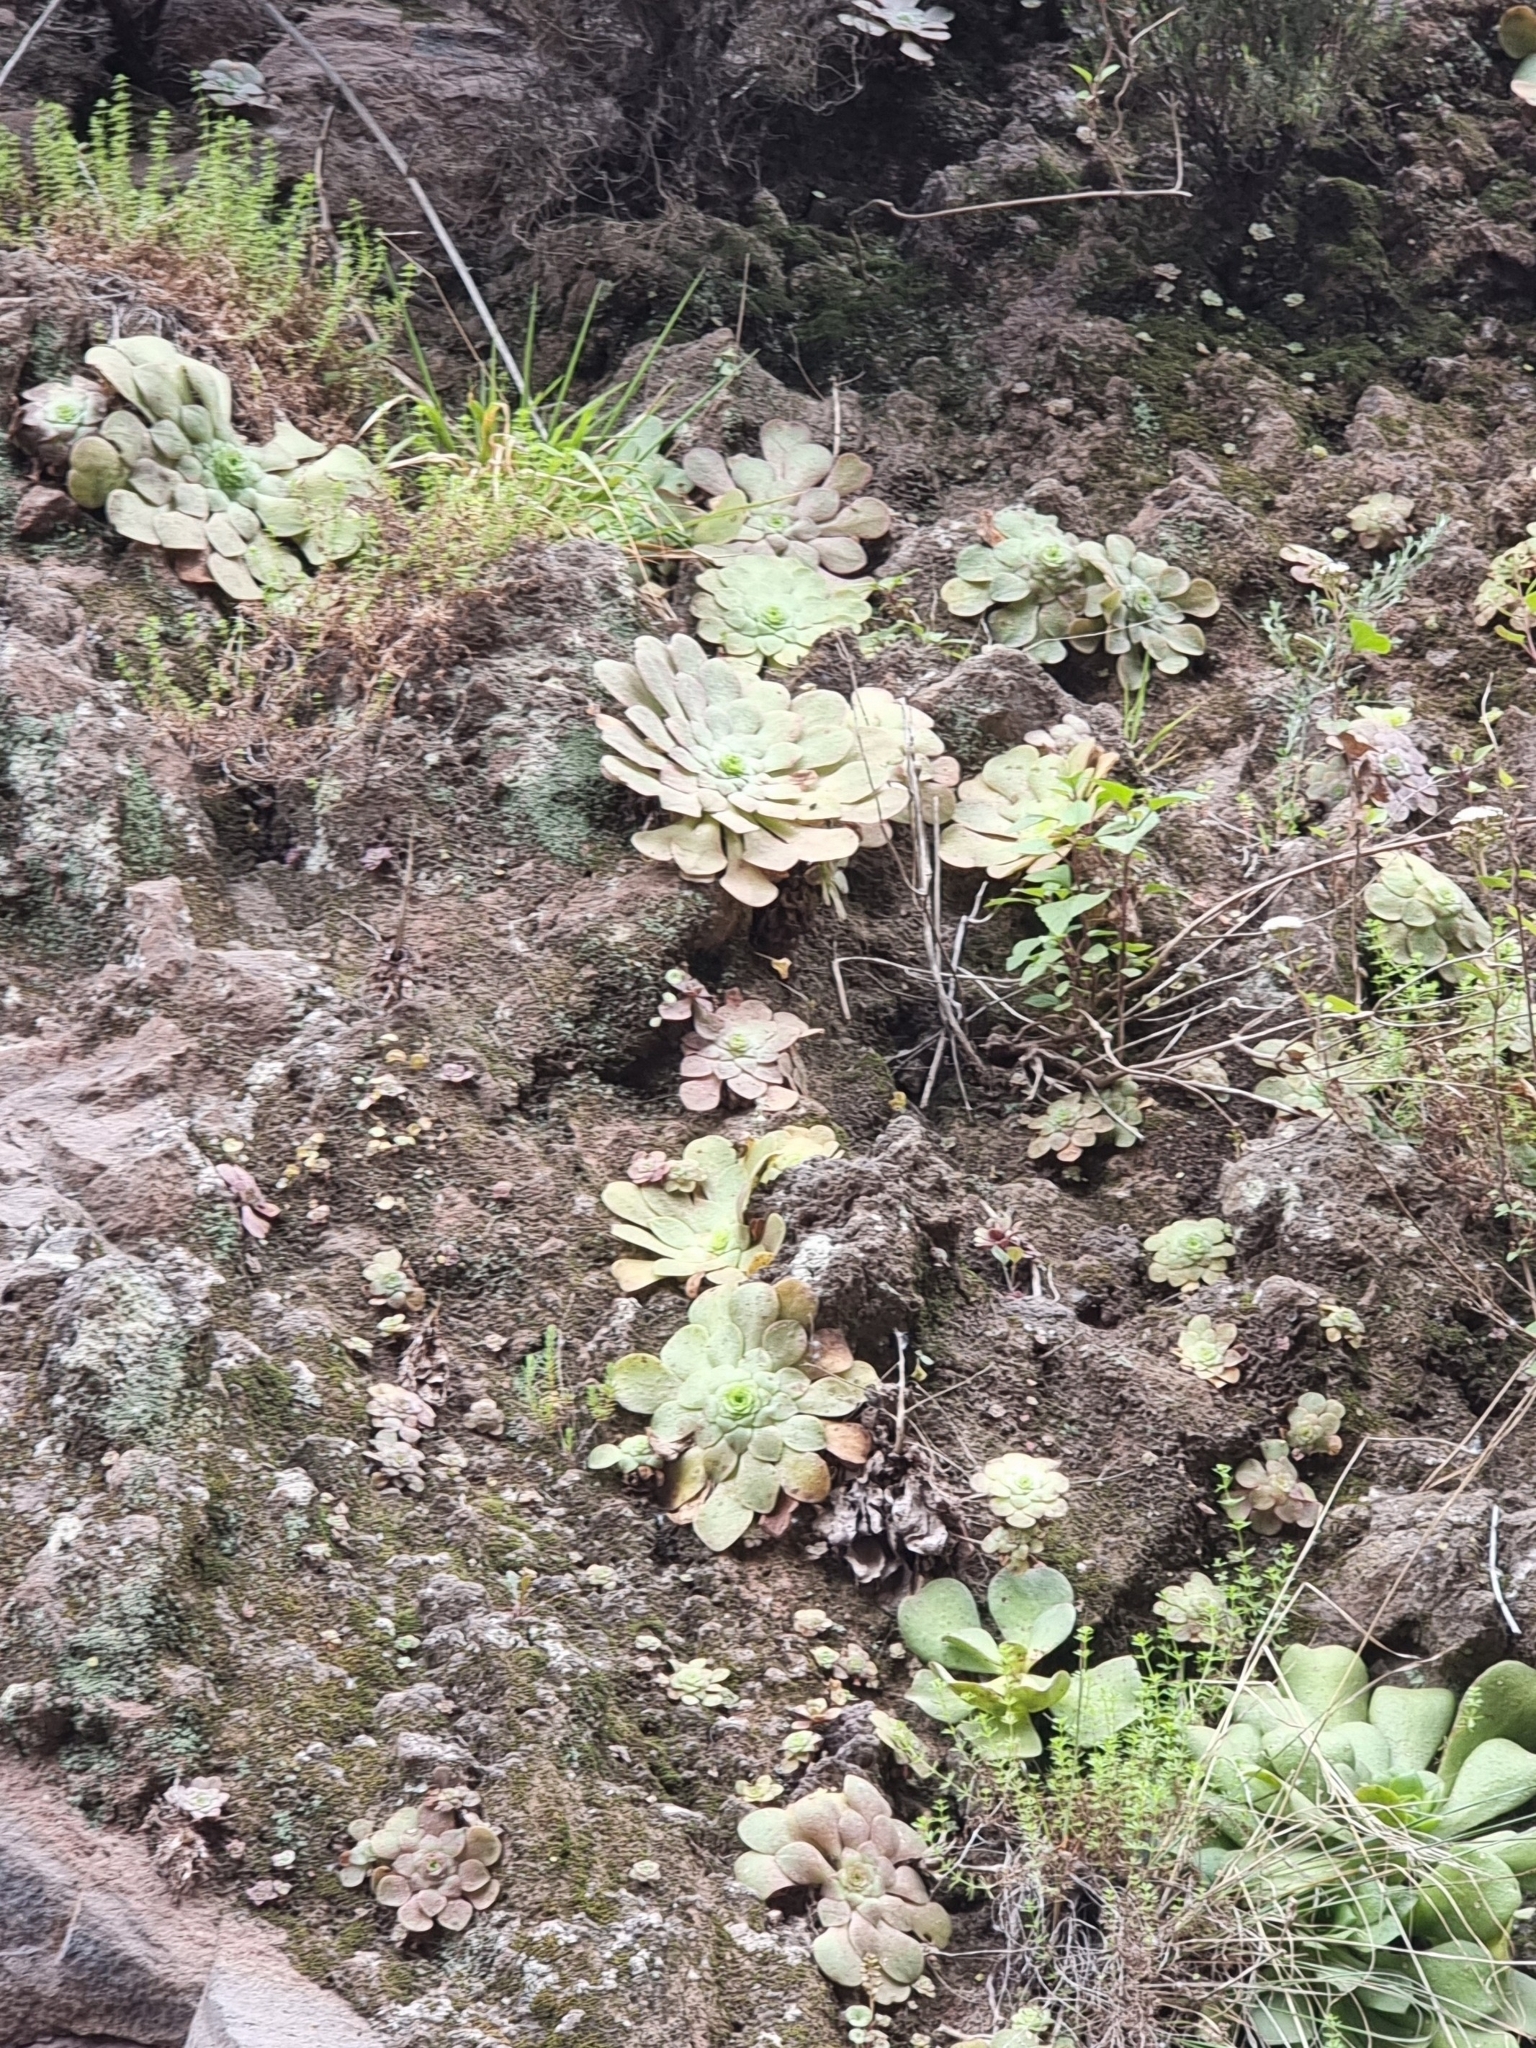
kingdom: Plantae
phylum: Tracheophyta
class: Magnoliopsida
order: Saxifragales
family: Crassulaceae
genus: Aeonium
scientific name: Aeonium glandulosum
